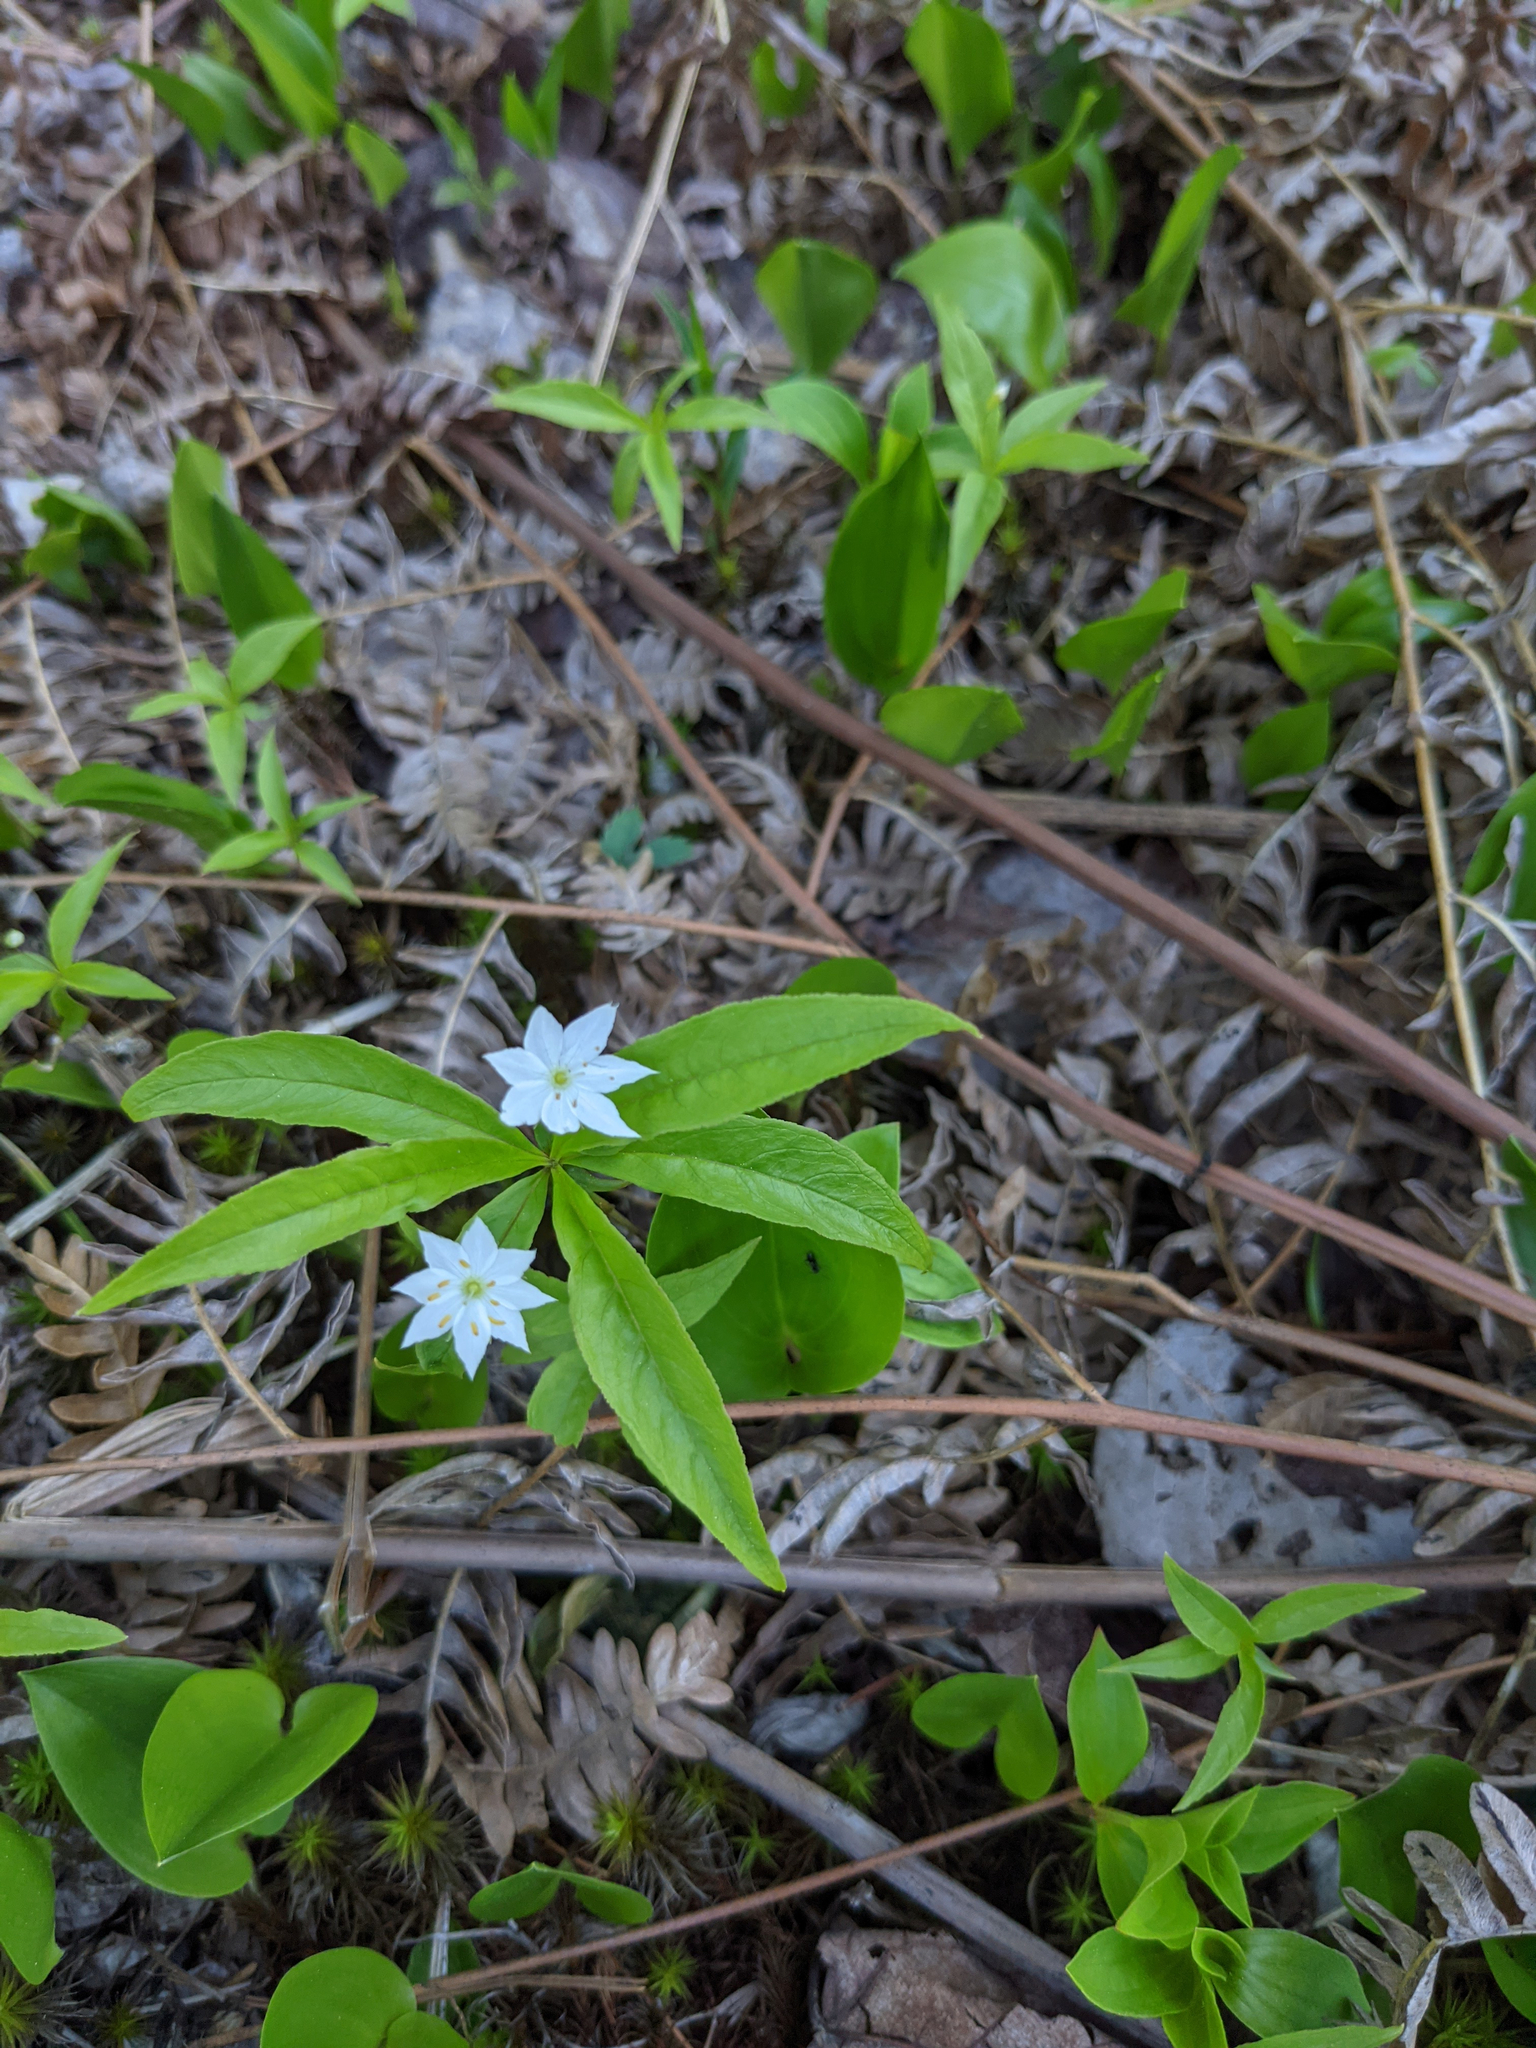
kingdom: Plantae
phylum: Tracheophyta
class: Magnoliopsida
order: Ericales
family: Primulaceae
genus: Lysimachia
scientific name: Lysimachia borealis
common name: American starflower
